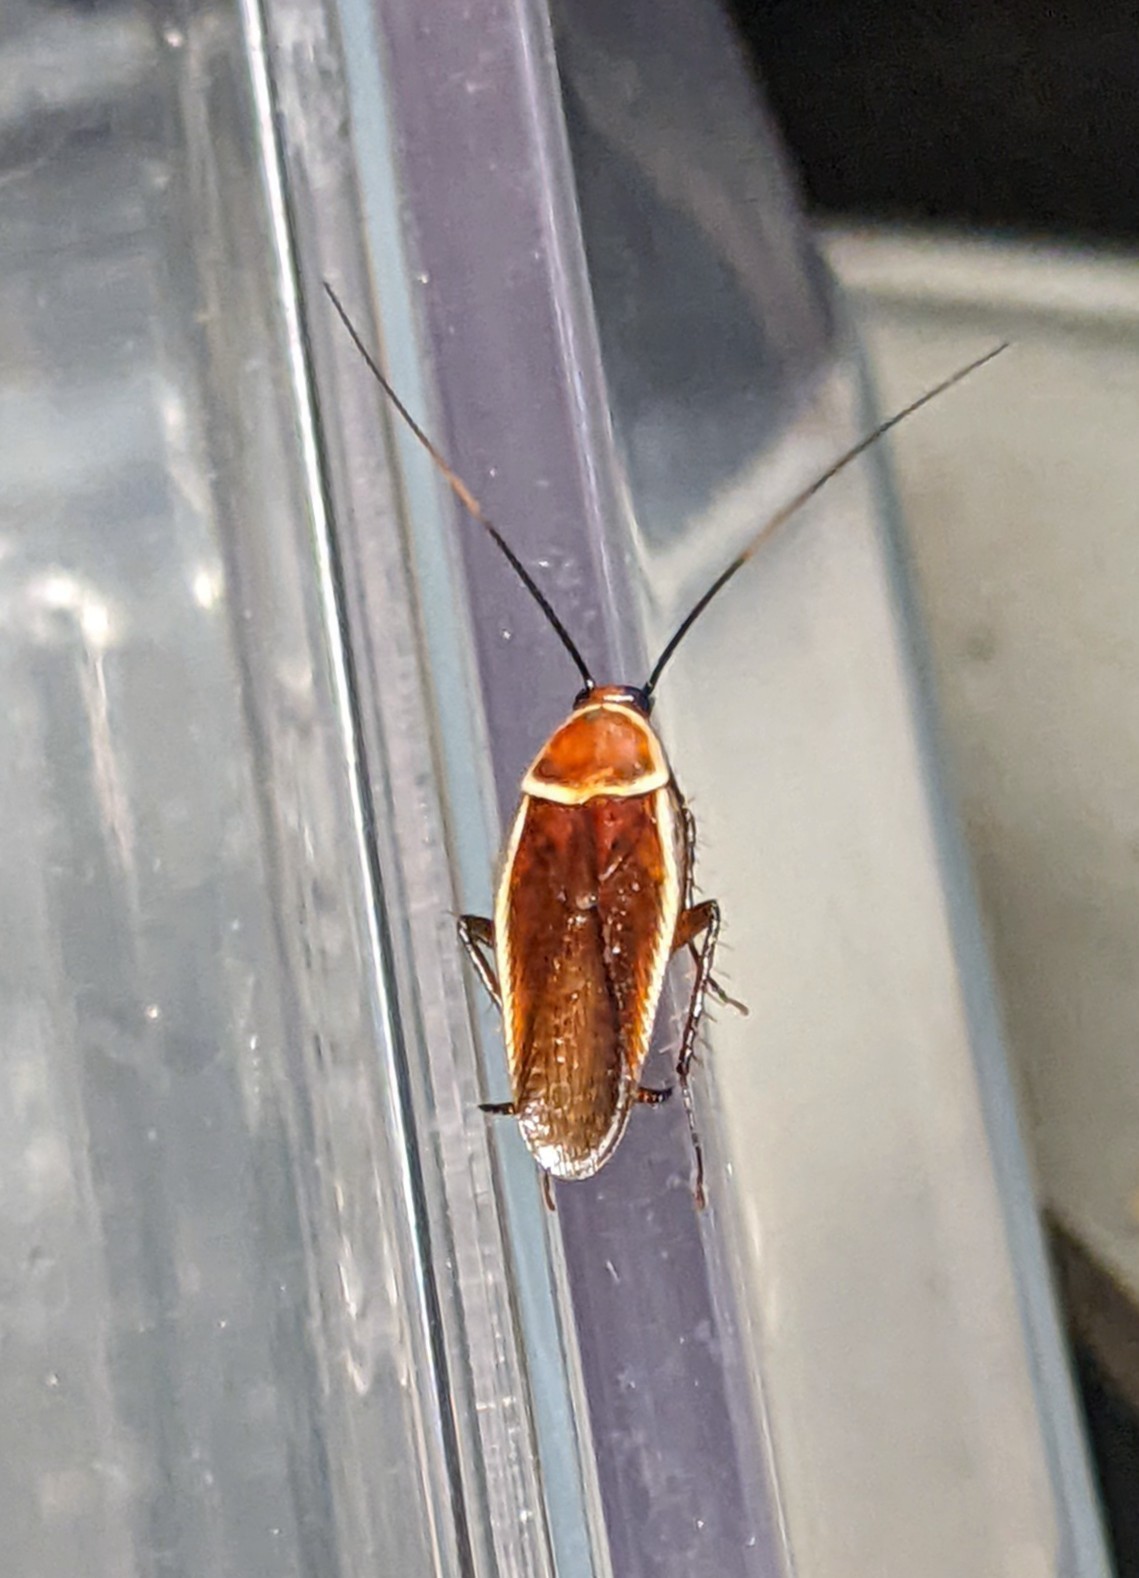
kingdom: Animalia
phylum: Arthropoda
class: Insecta
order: Blattodea
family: Ectobiidae
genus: Pseudomops
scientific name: Pseudomops septentrionalis
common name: Pale-bordered field cockroach
